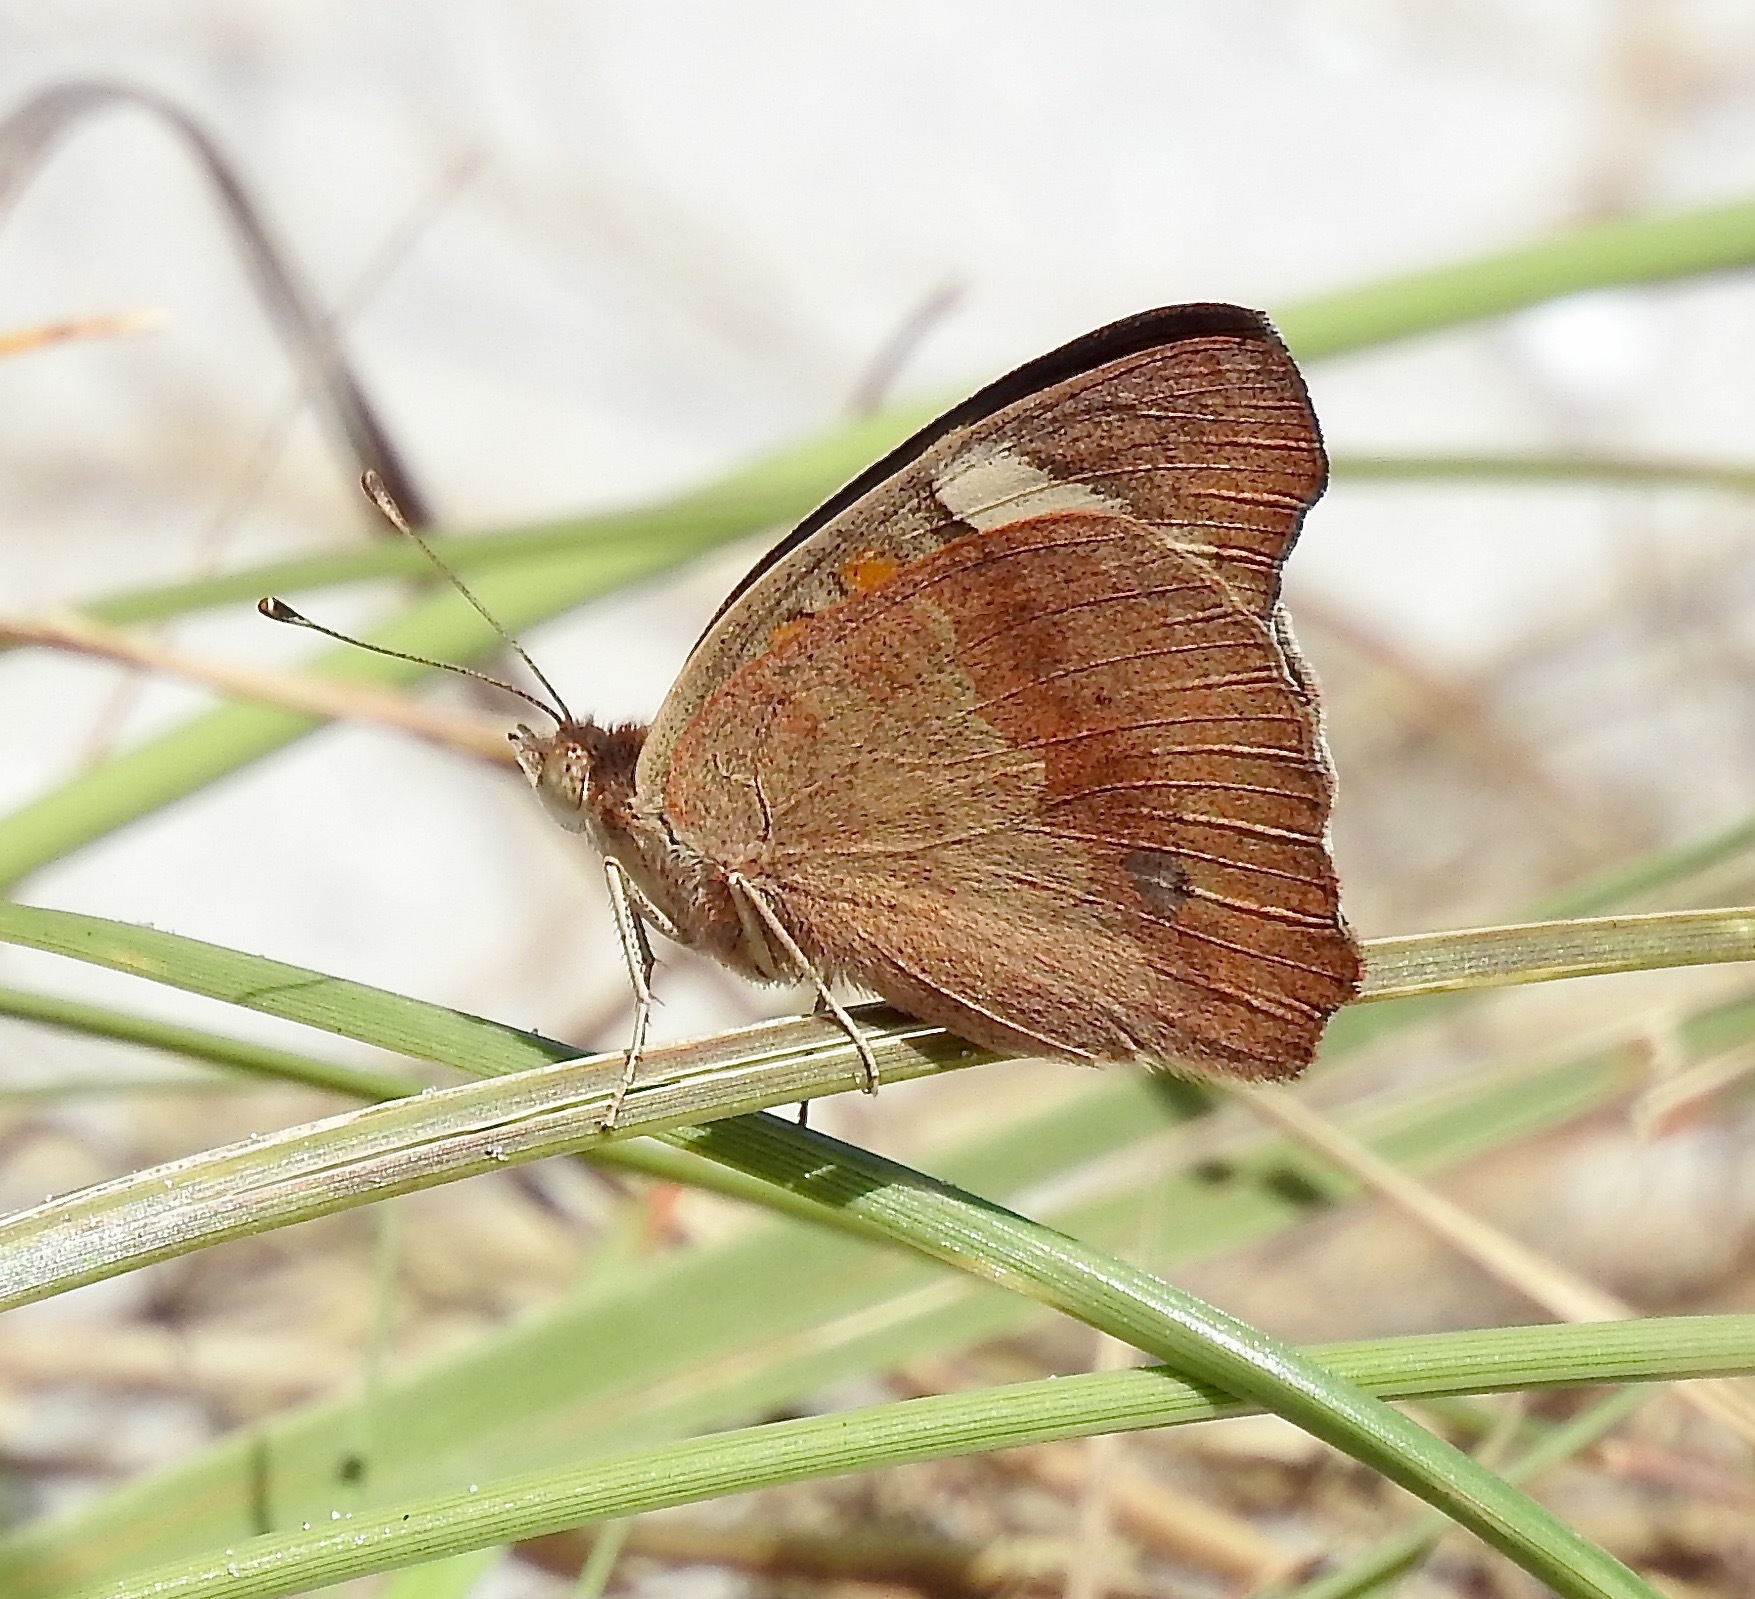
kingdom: Animalia
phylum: Arthropoda
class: Insecta
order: Lepidoptera
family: Nymphalidae
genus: Junonia
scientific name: Junonia coenia
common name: Common buckeye
